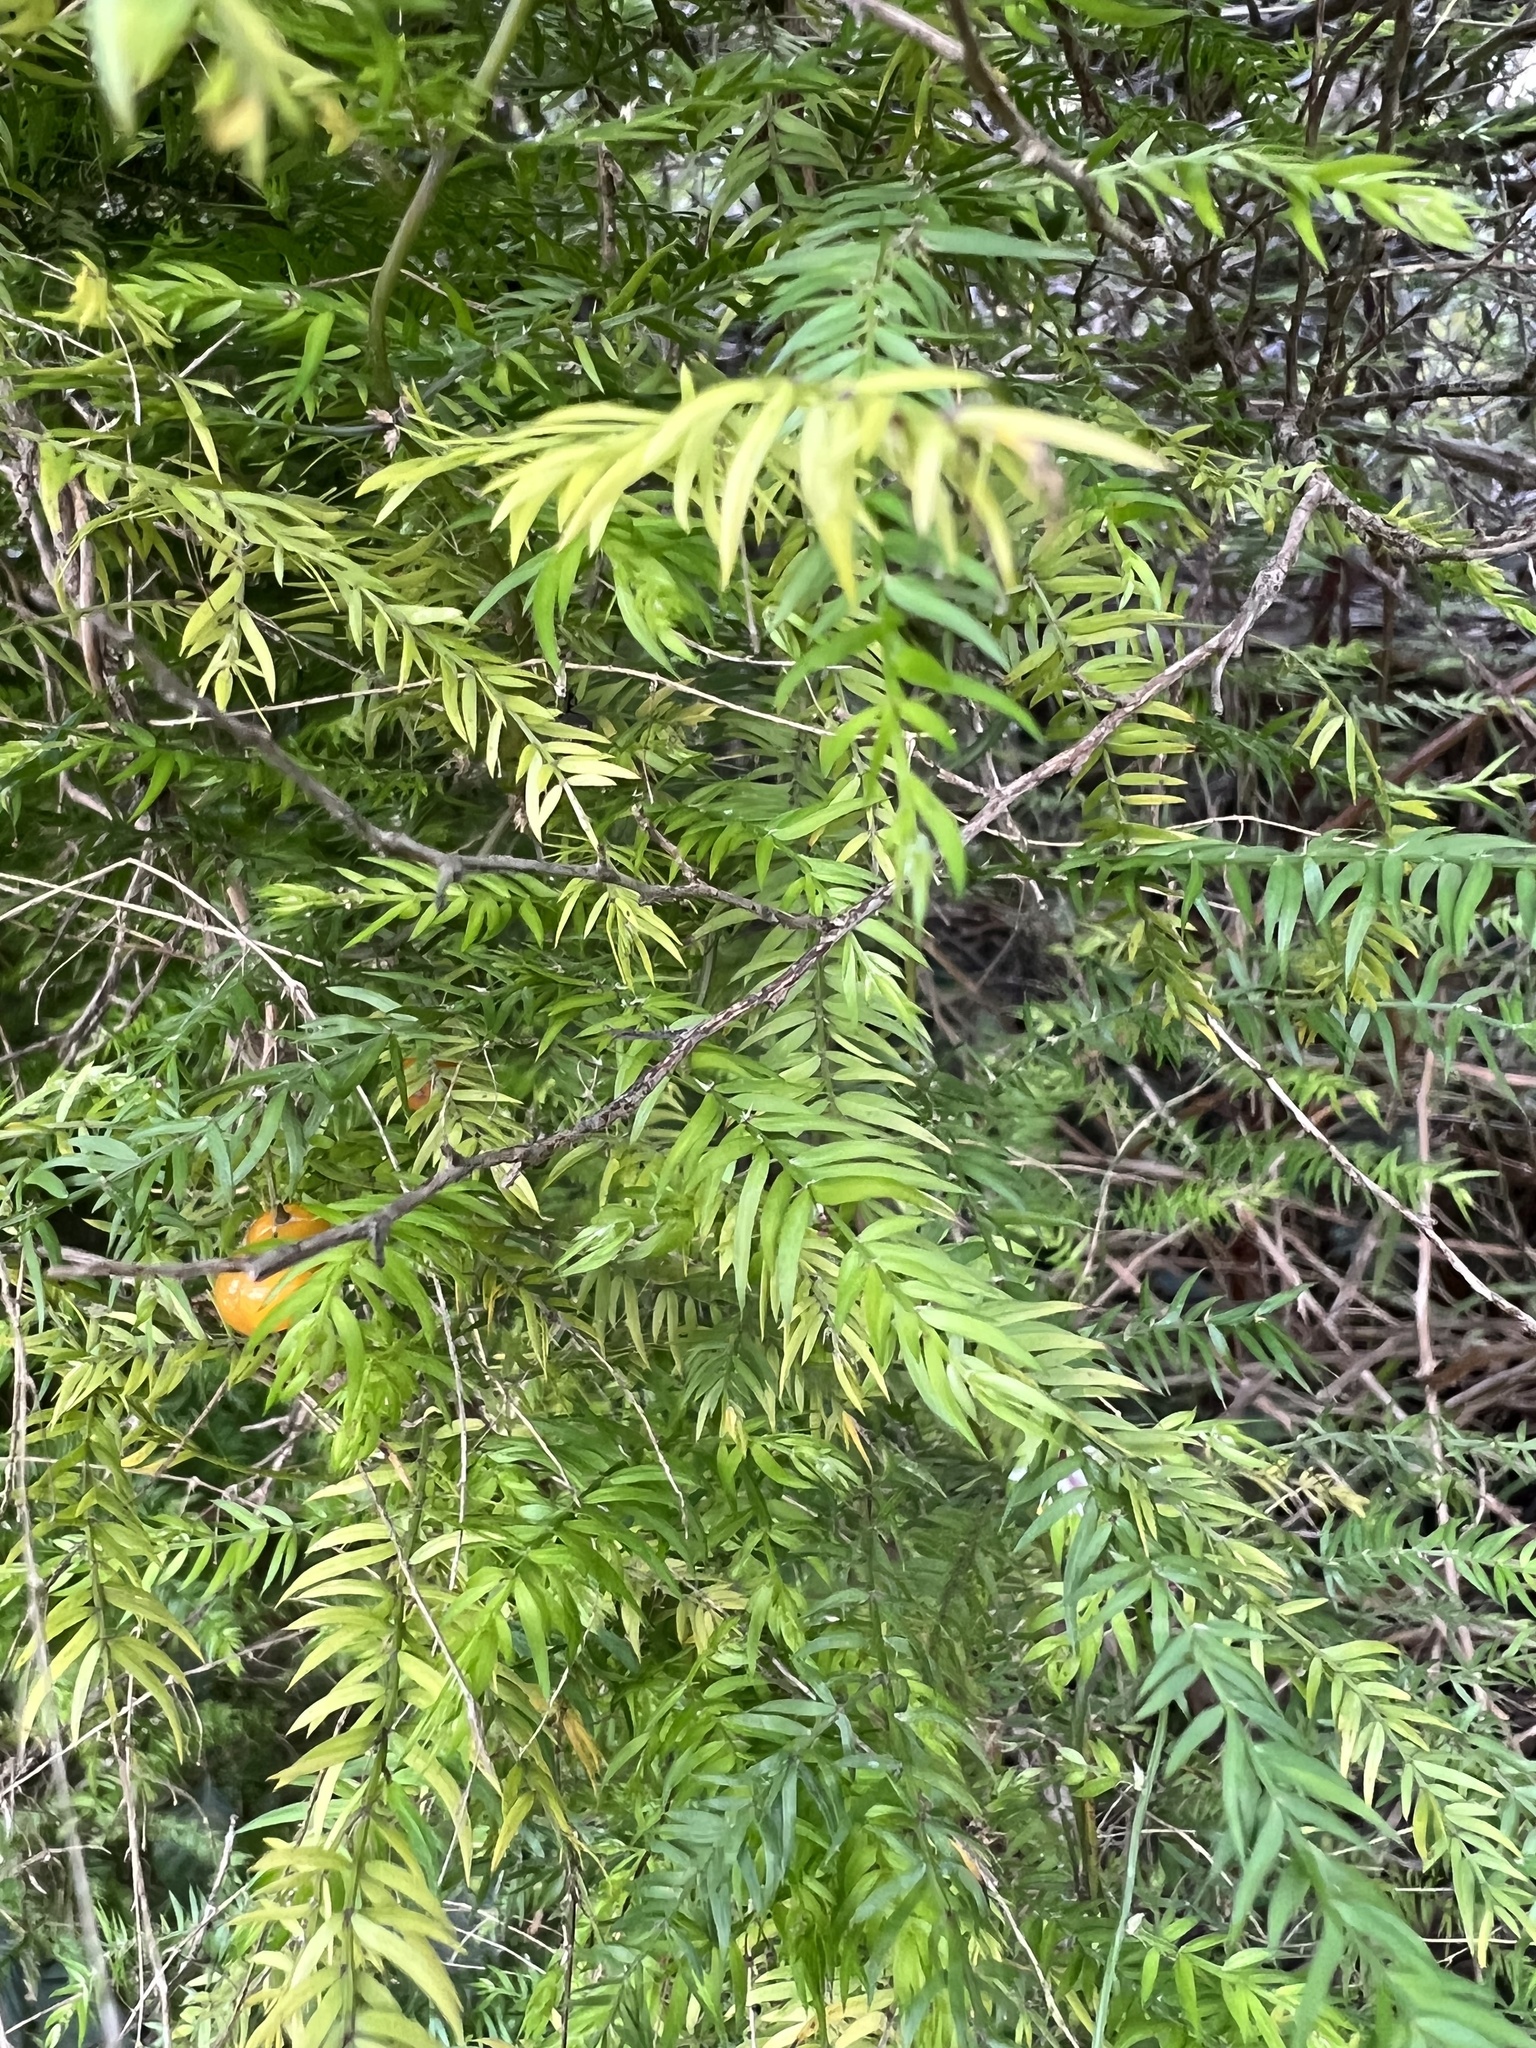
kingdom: Plantae
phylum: Tracheophyta
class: Liliopsida
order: Asparagales
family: Asparagaceae
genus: Asparagus
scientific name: Asparagus scandens
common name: Asparagus-fern
